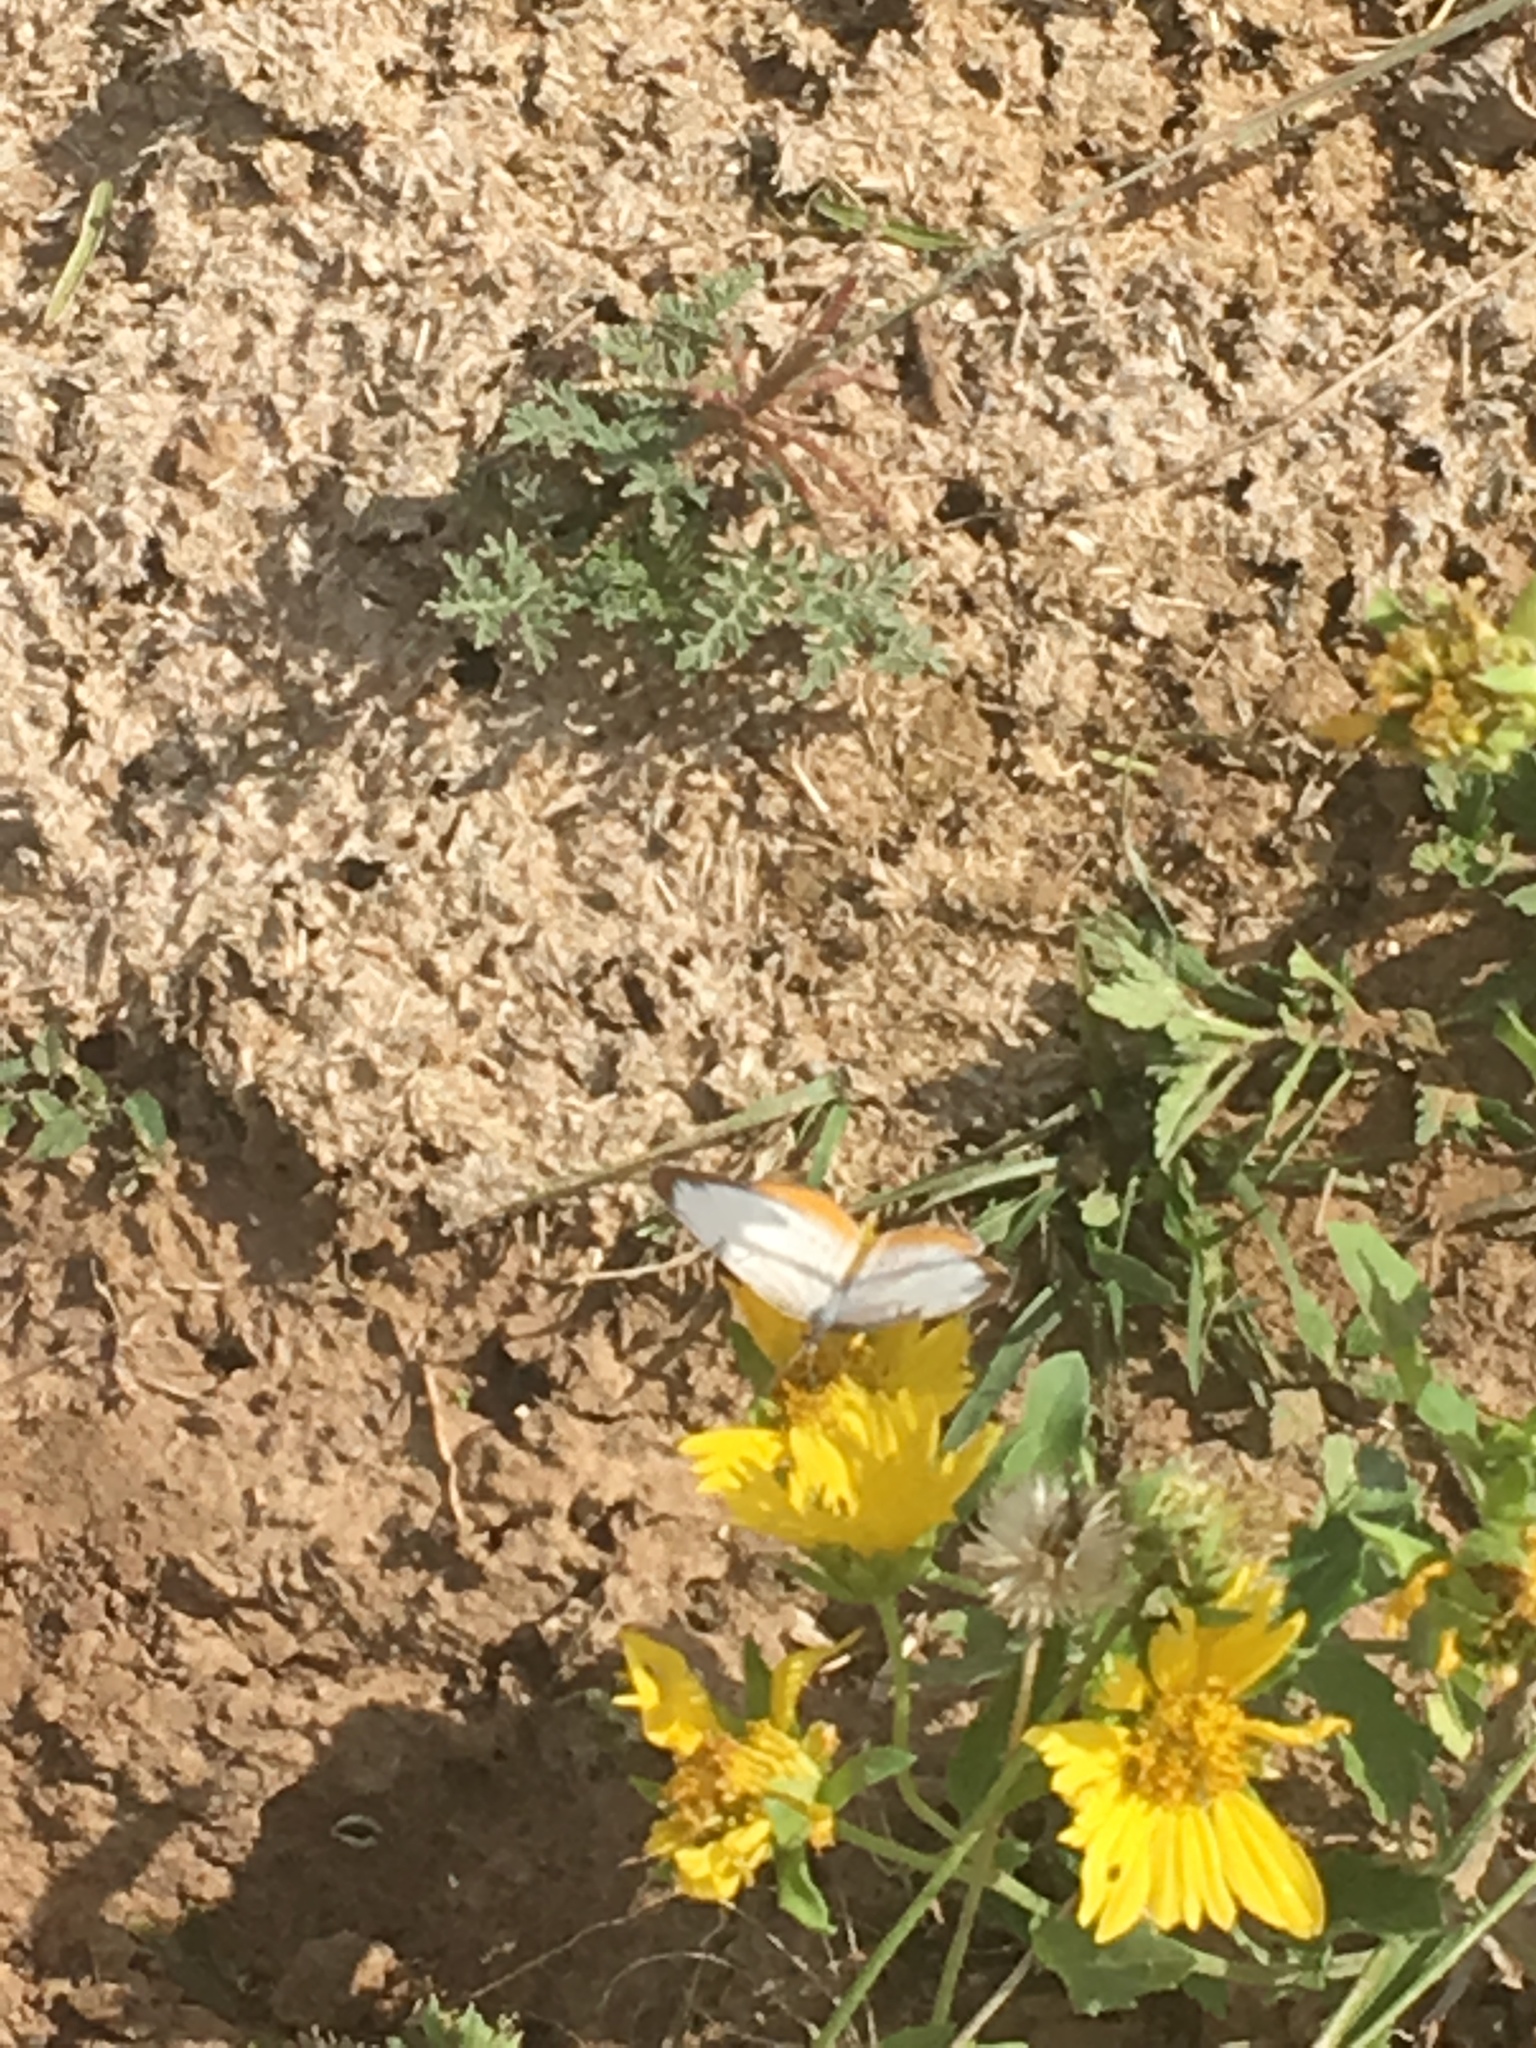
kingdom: Animalia
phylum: Arthropoda
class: Insecta
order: Lepidoptera
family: Nymphalidae
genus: Mestra
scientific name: Mestra amymone
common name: Common mestra
